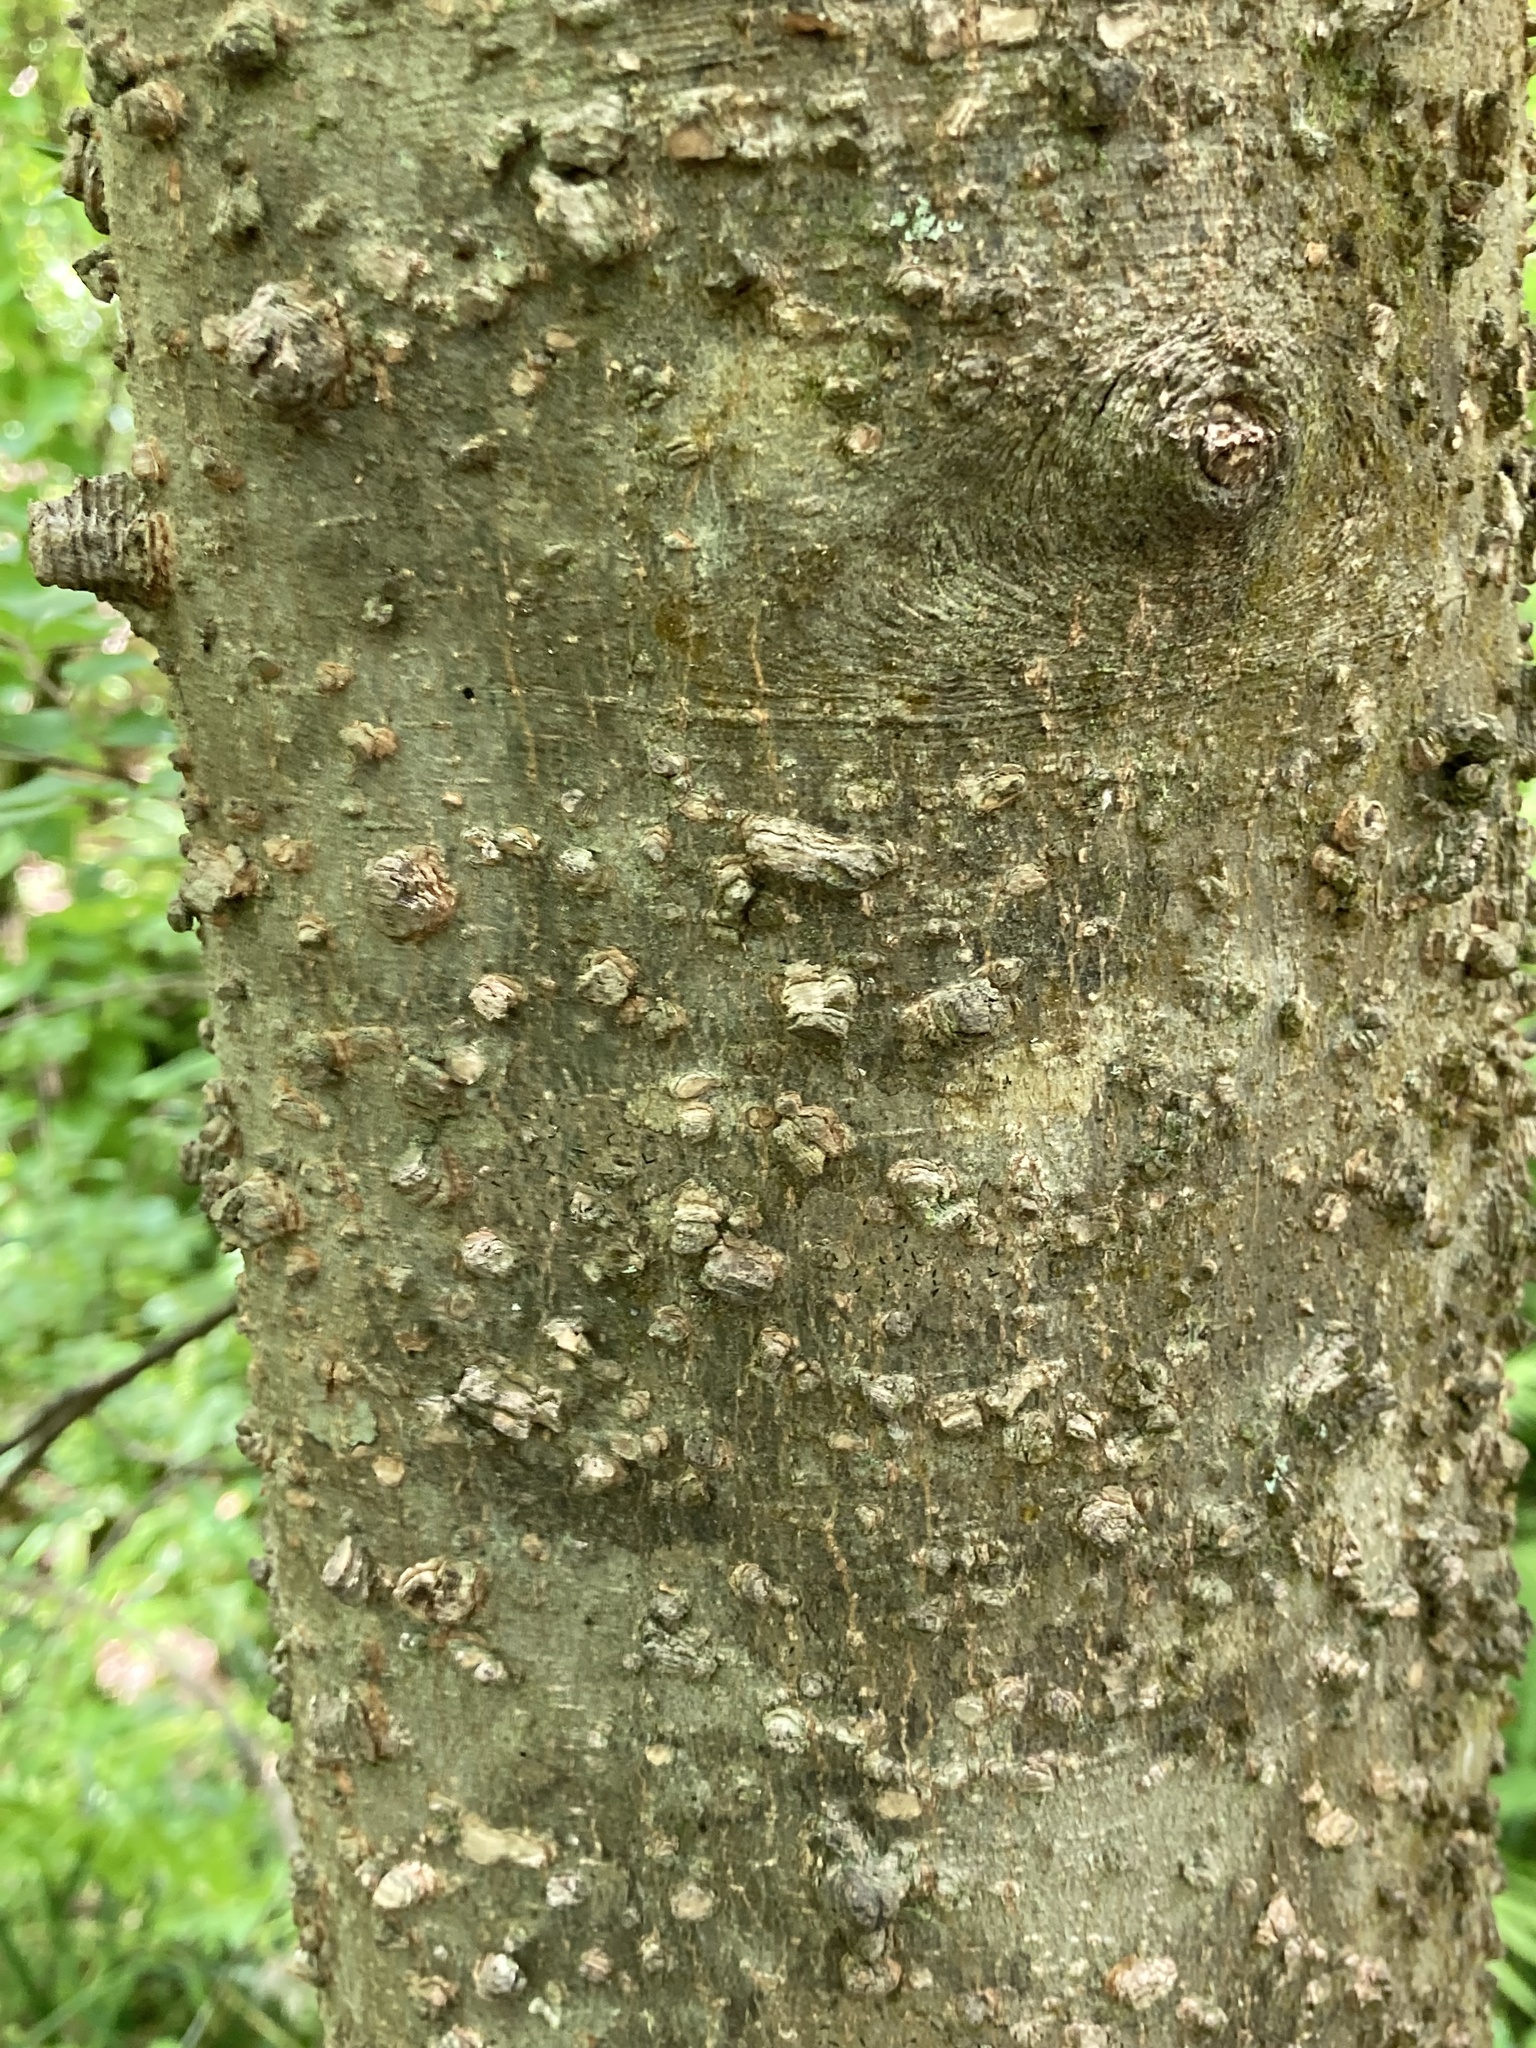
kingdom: Plantae
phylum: Tracheophyta
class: Magnoliopsida
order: Rosales
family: Cannabaceae
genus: Celtis
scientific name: Celtis laevigata
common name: Sugarberry
